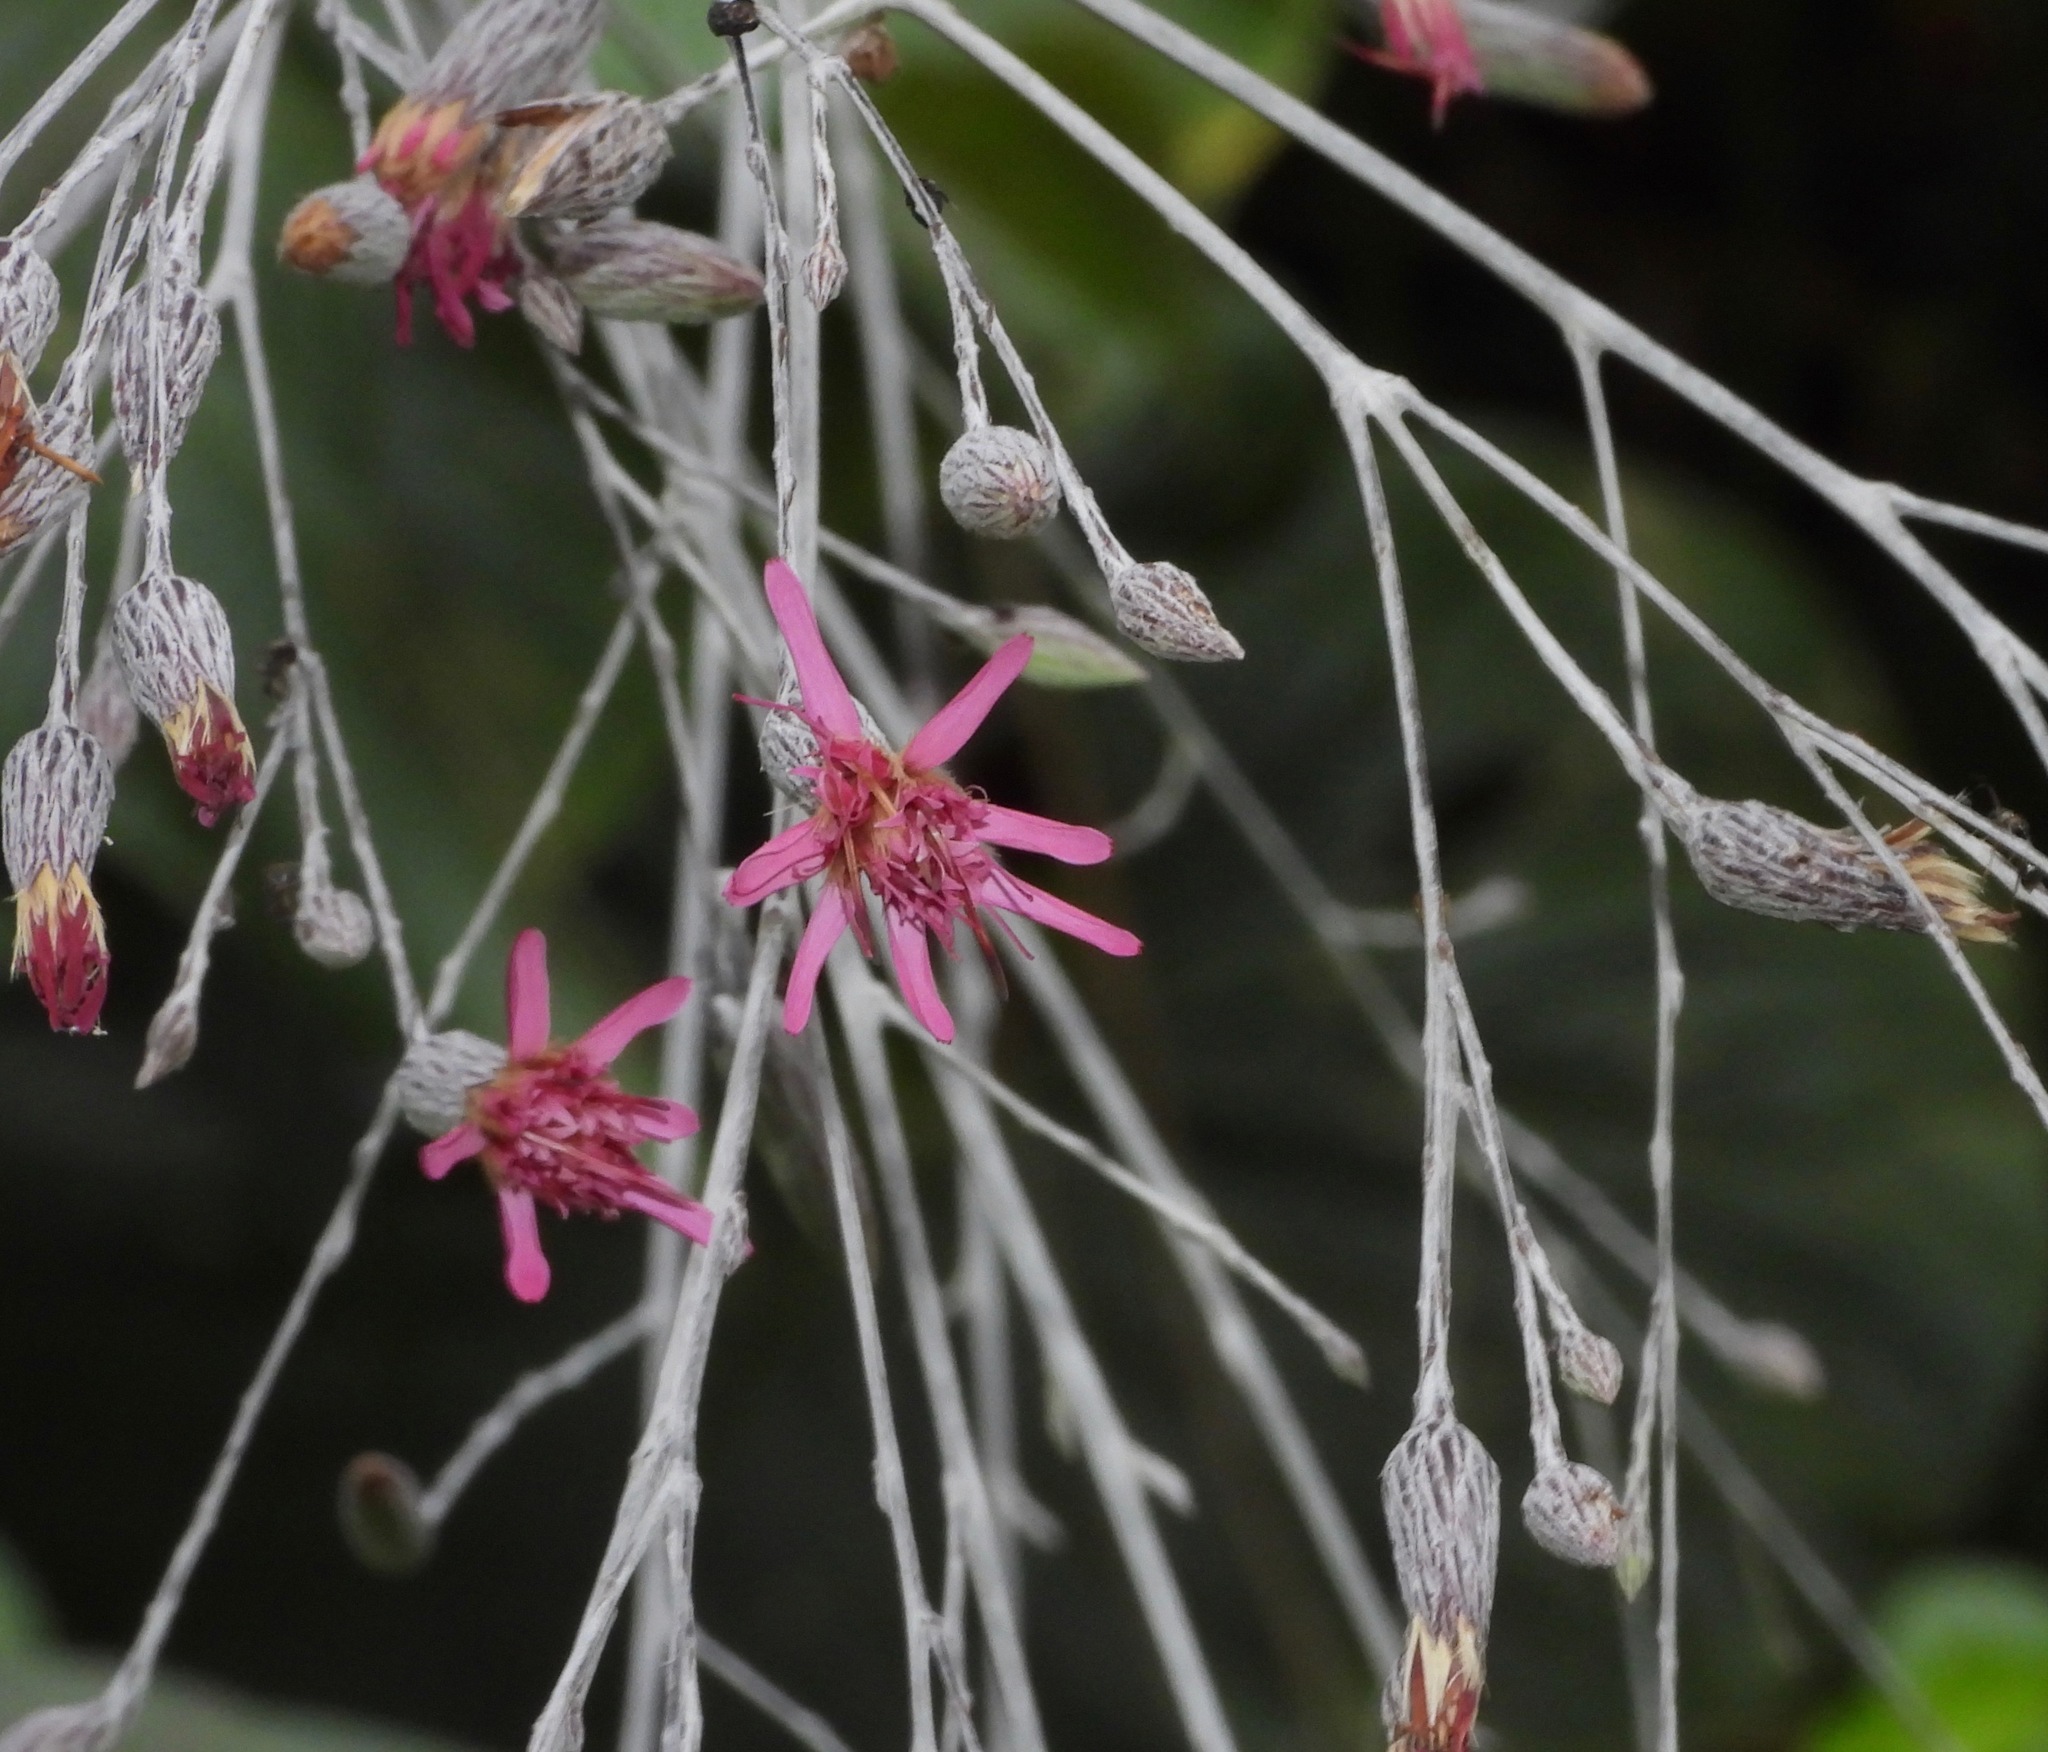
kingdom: Plantae
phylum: Tracheophyta
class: Magnoliopsida
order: Asterales
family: Asteraceae
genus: Onoseris
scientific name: Onoseris silvatica
